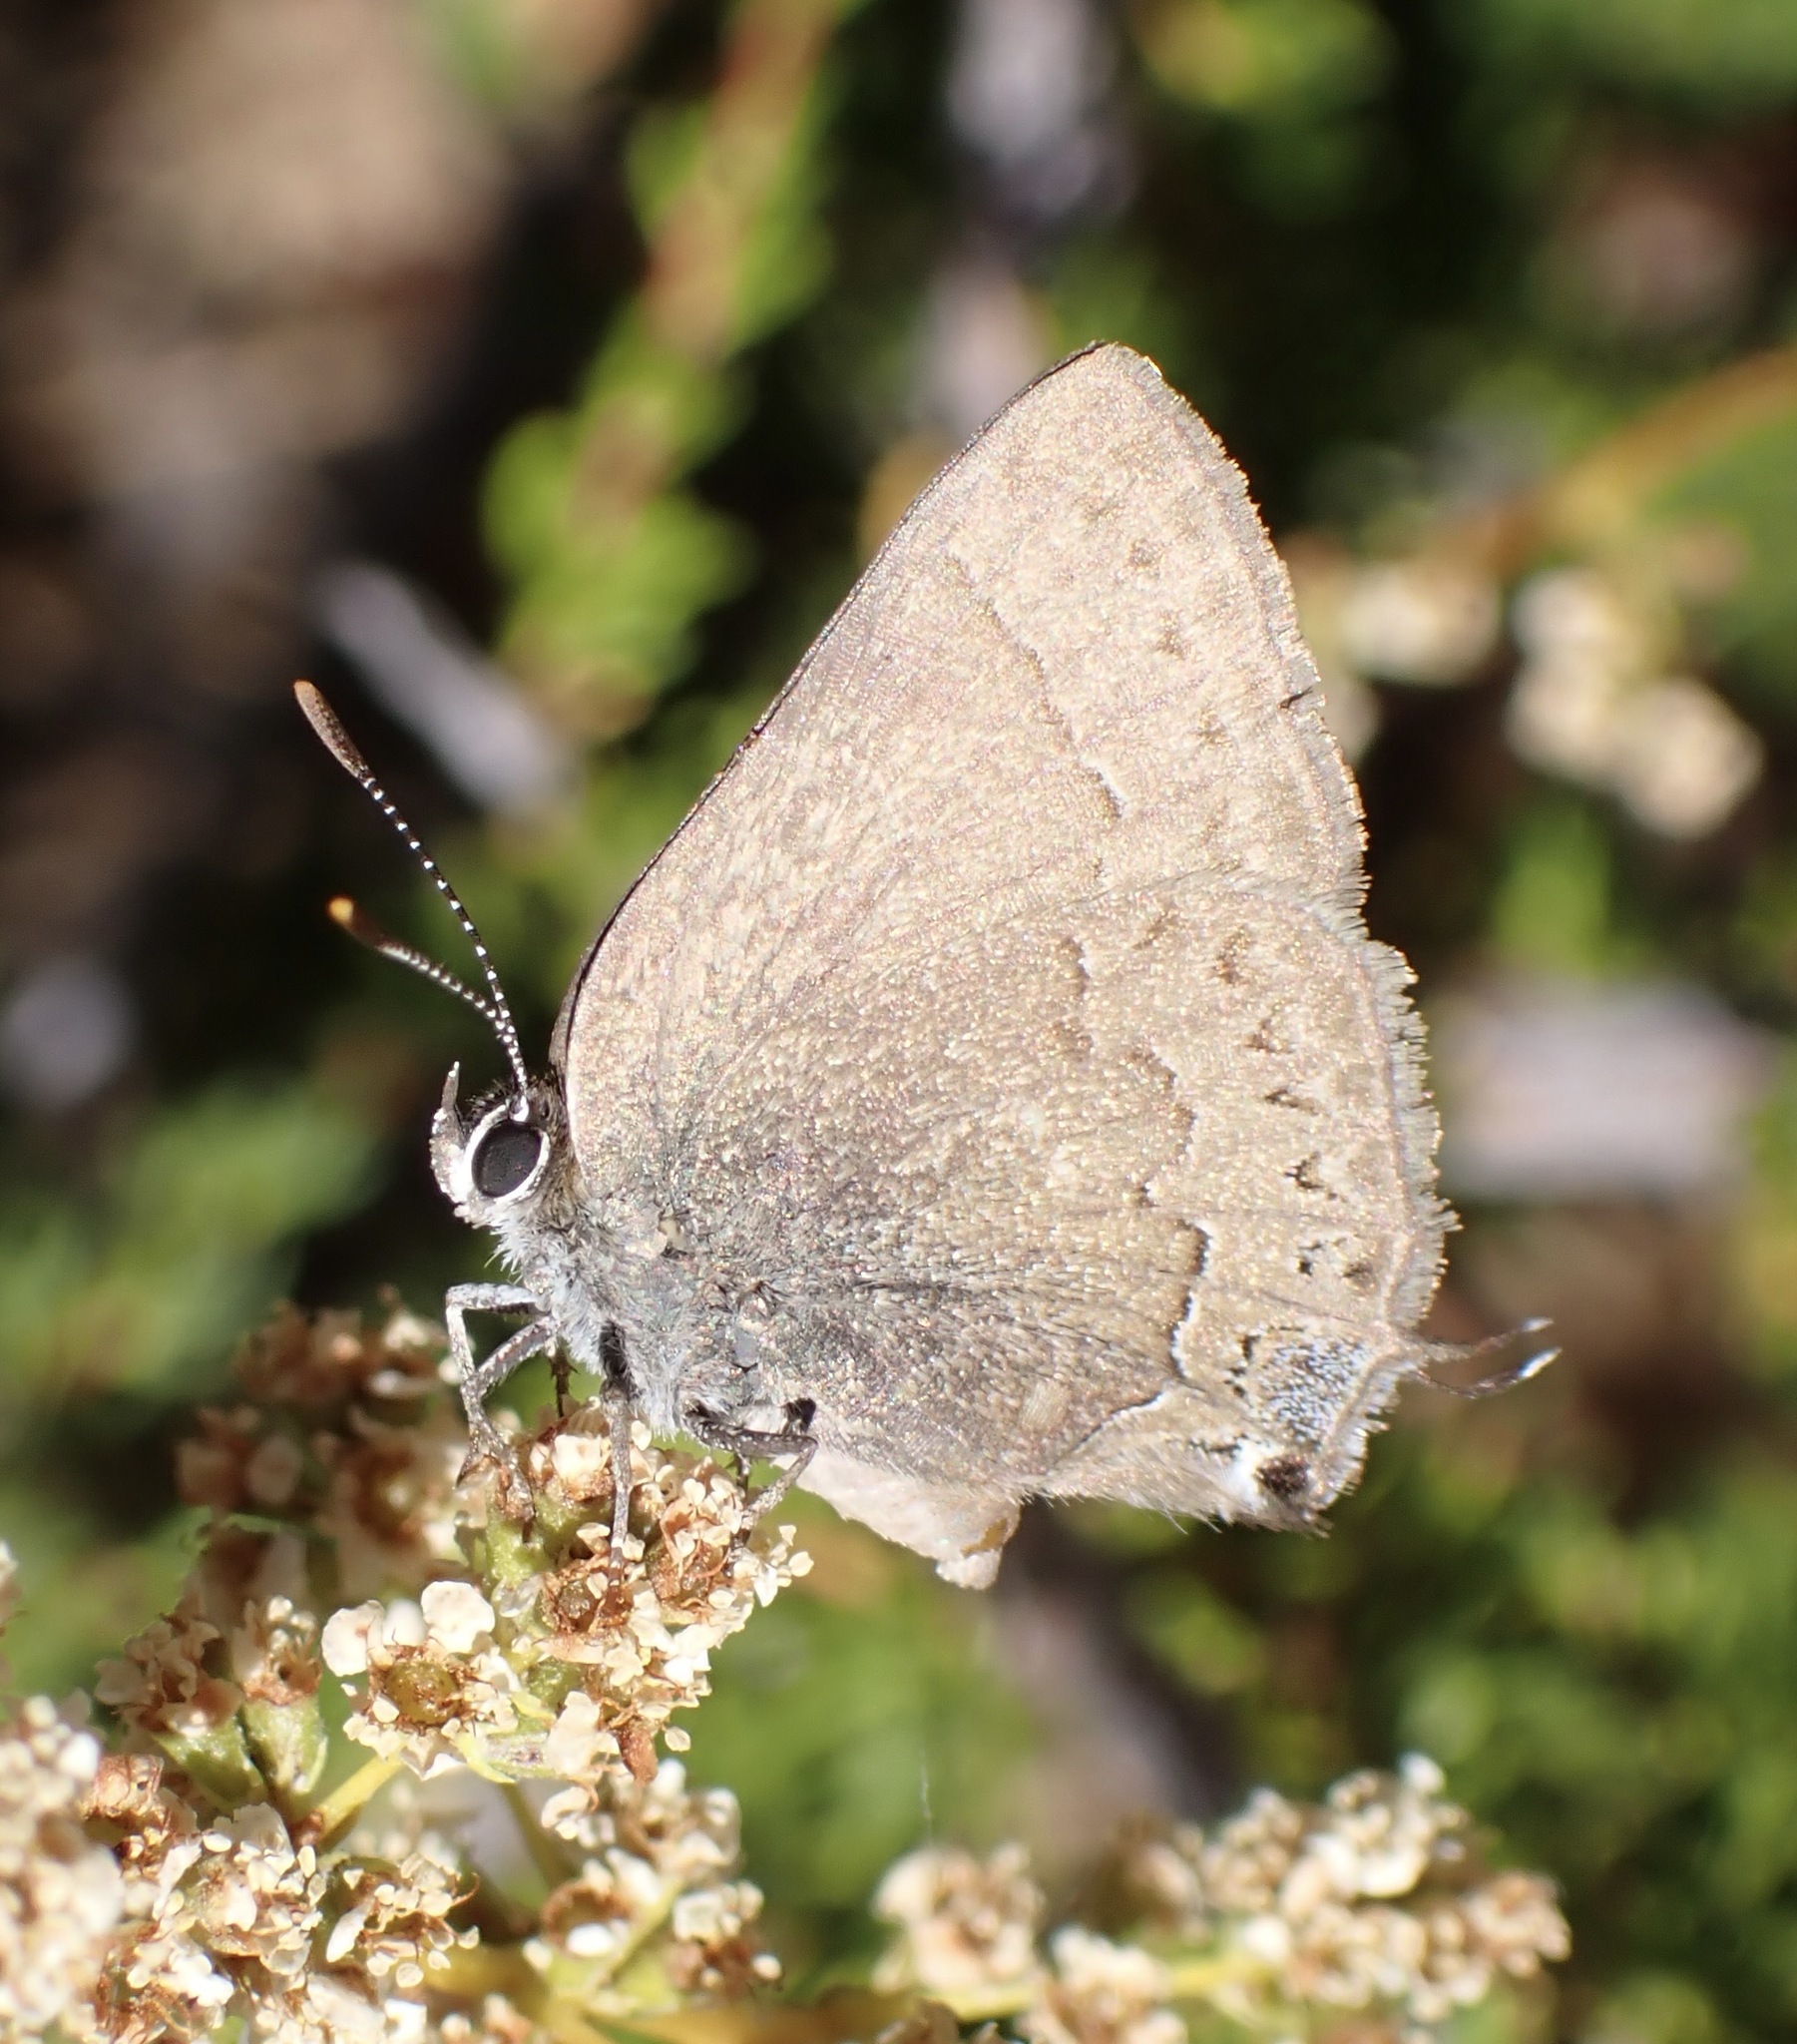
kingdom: Animalia
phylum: Arthropoda
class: Insecta
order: Lepidoptera
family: Lycaenidae
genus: Strymon
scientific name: Strymon saepium
